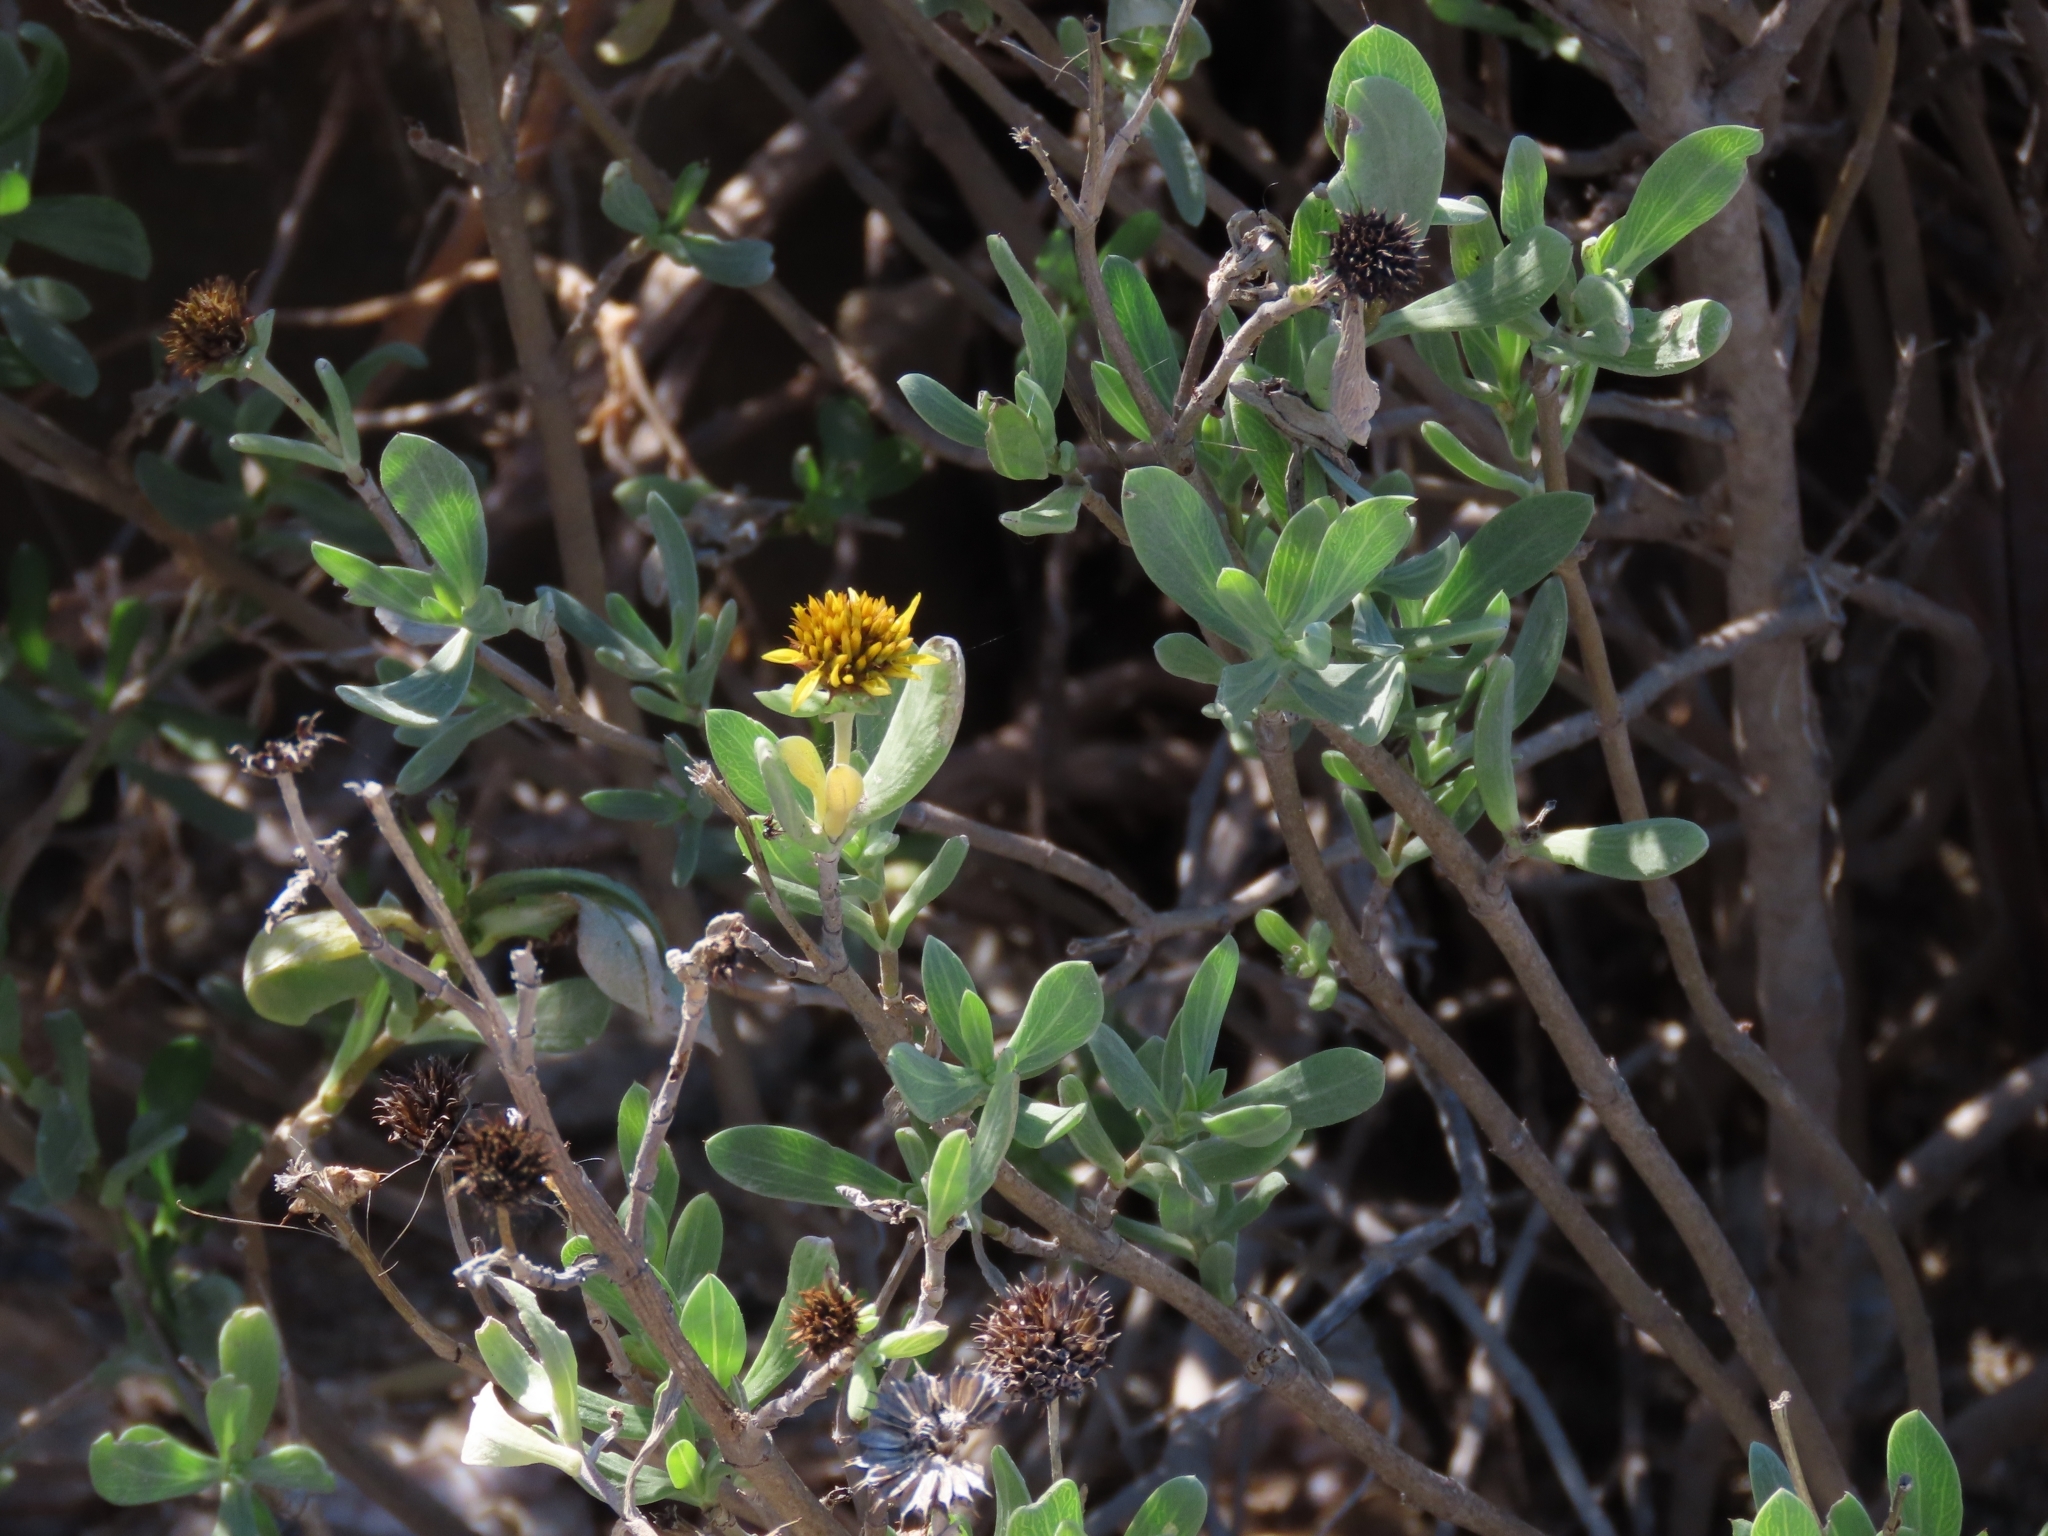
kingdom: Plantae
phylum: Tracheophyta
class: Magnoliopsida
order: Asterales
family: Asteraceae
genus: Borrichia
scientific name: Borrichia frutescens
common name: Sea oxeye
